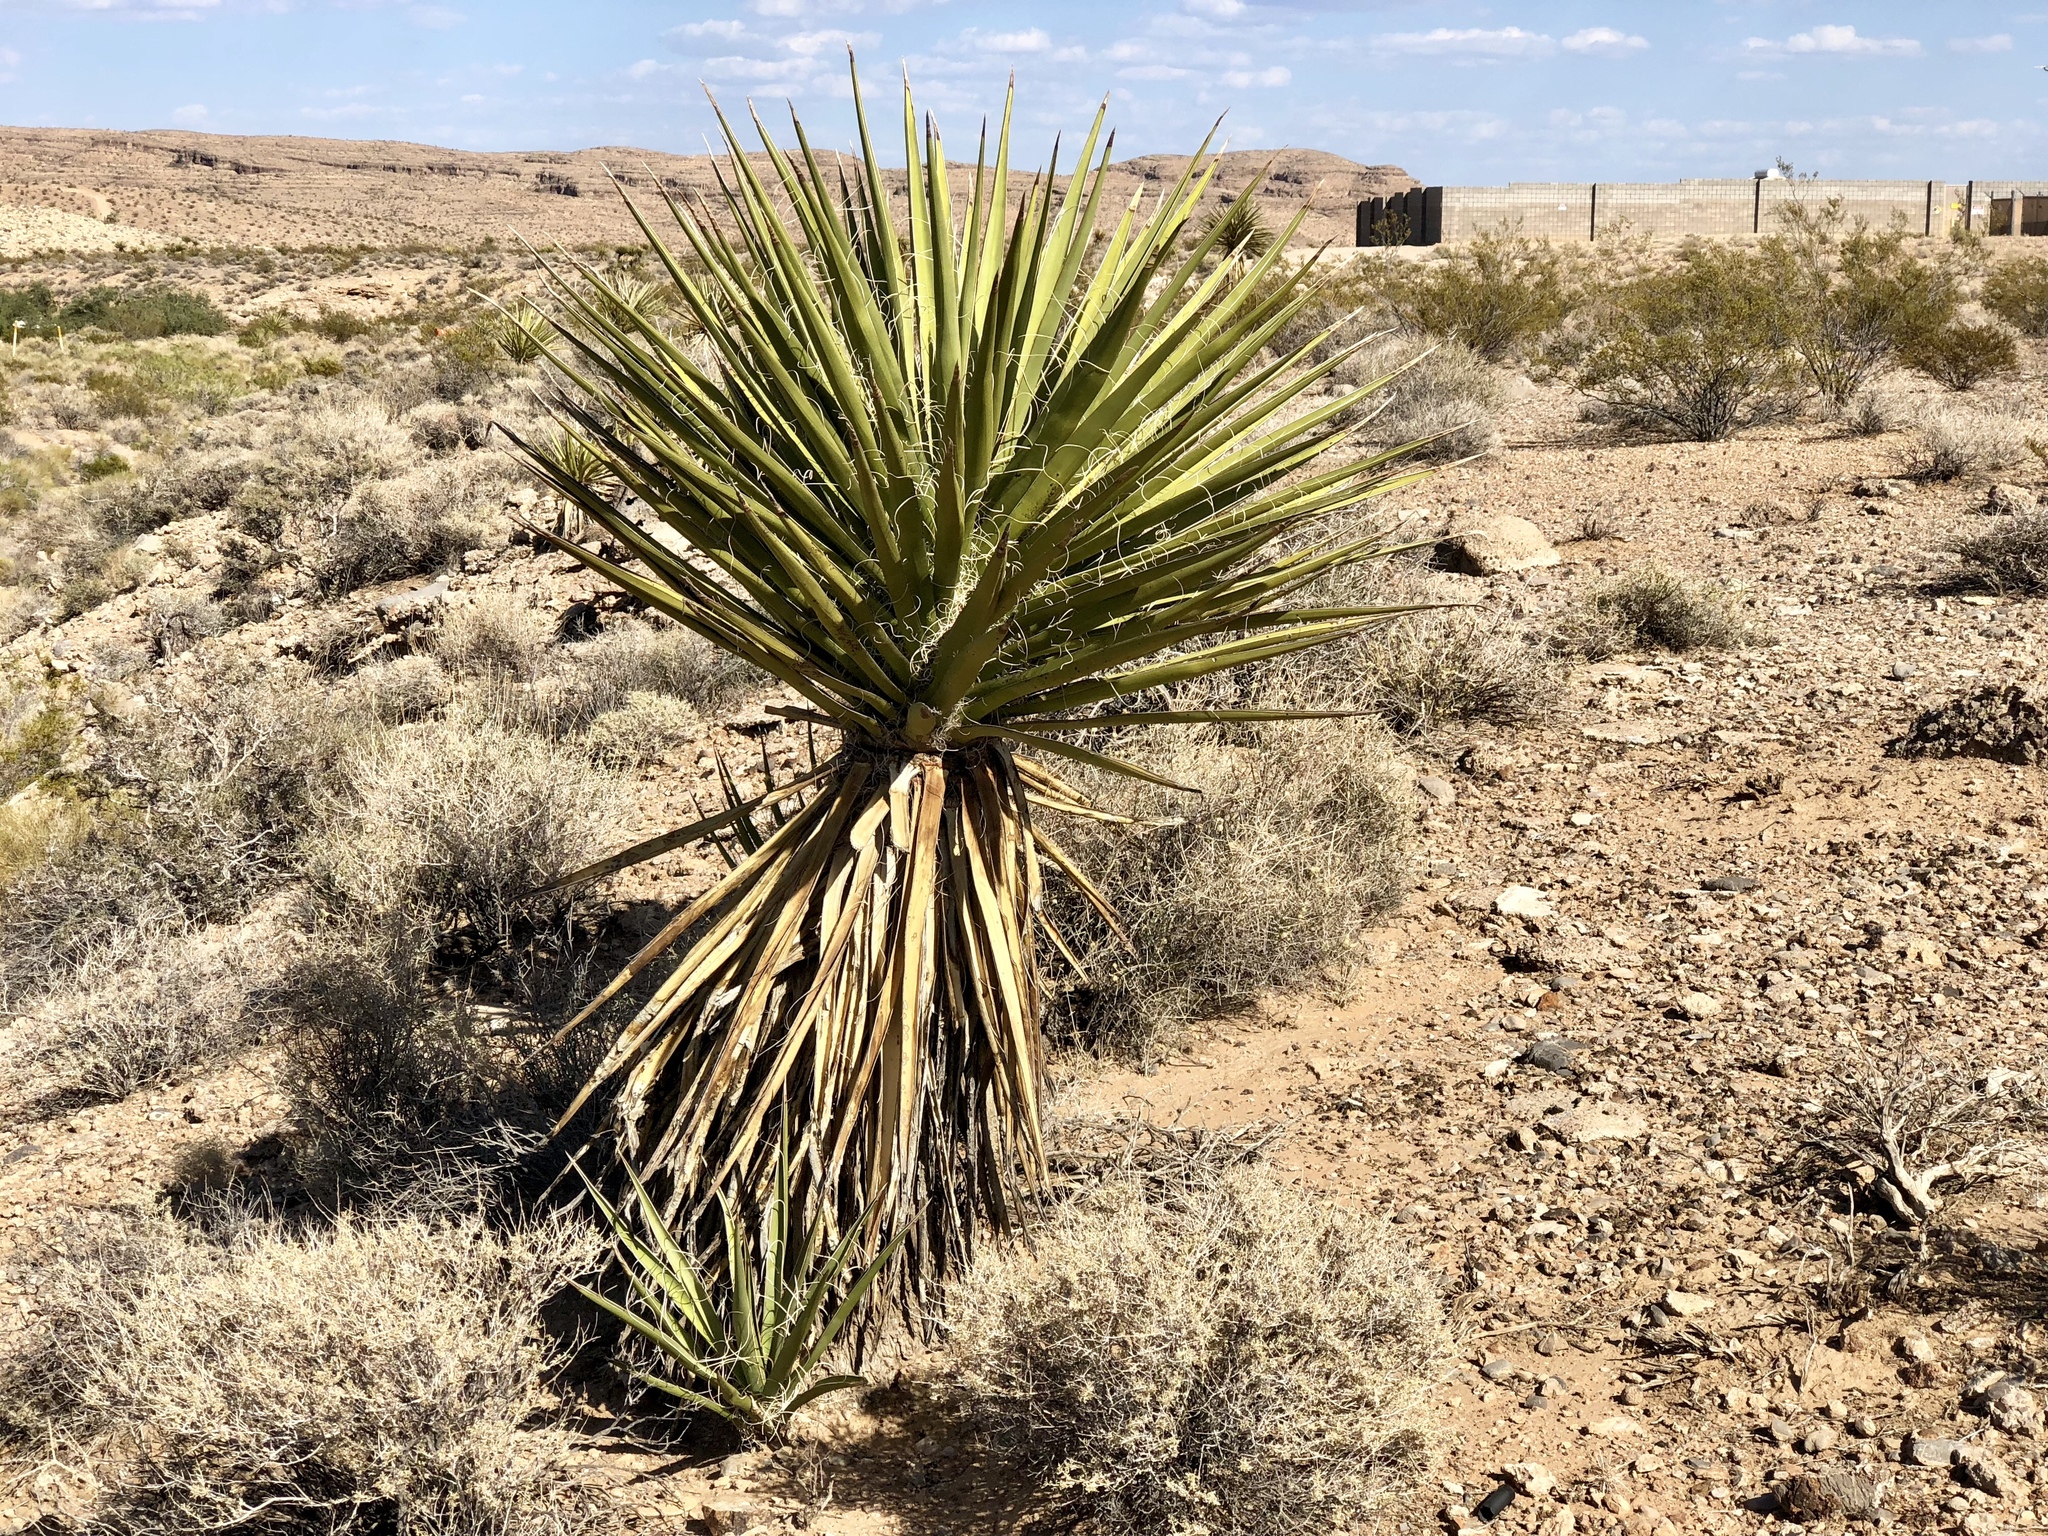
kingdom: Plantae
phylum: Tracheophyta
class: Liliopsida
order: Asparagales
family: Asparagaceae
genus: Yucca
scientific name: Yucca schidigera
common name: Mojave yucca
